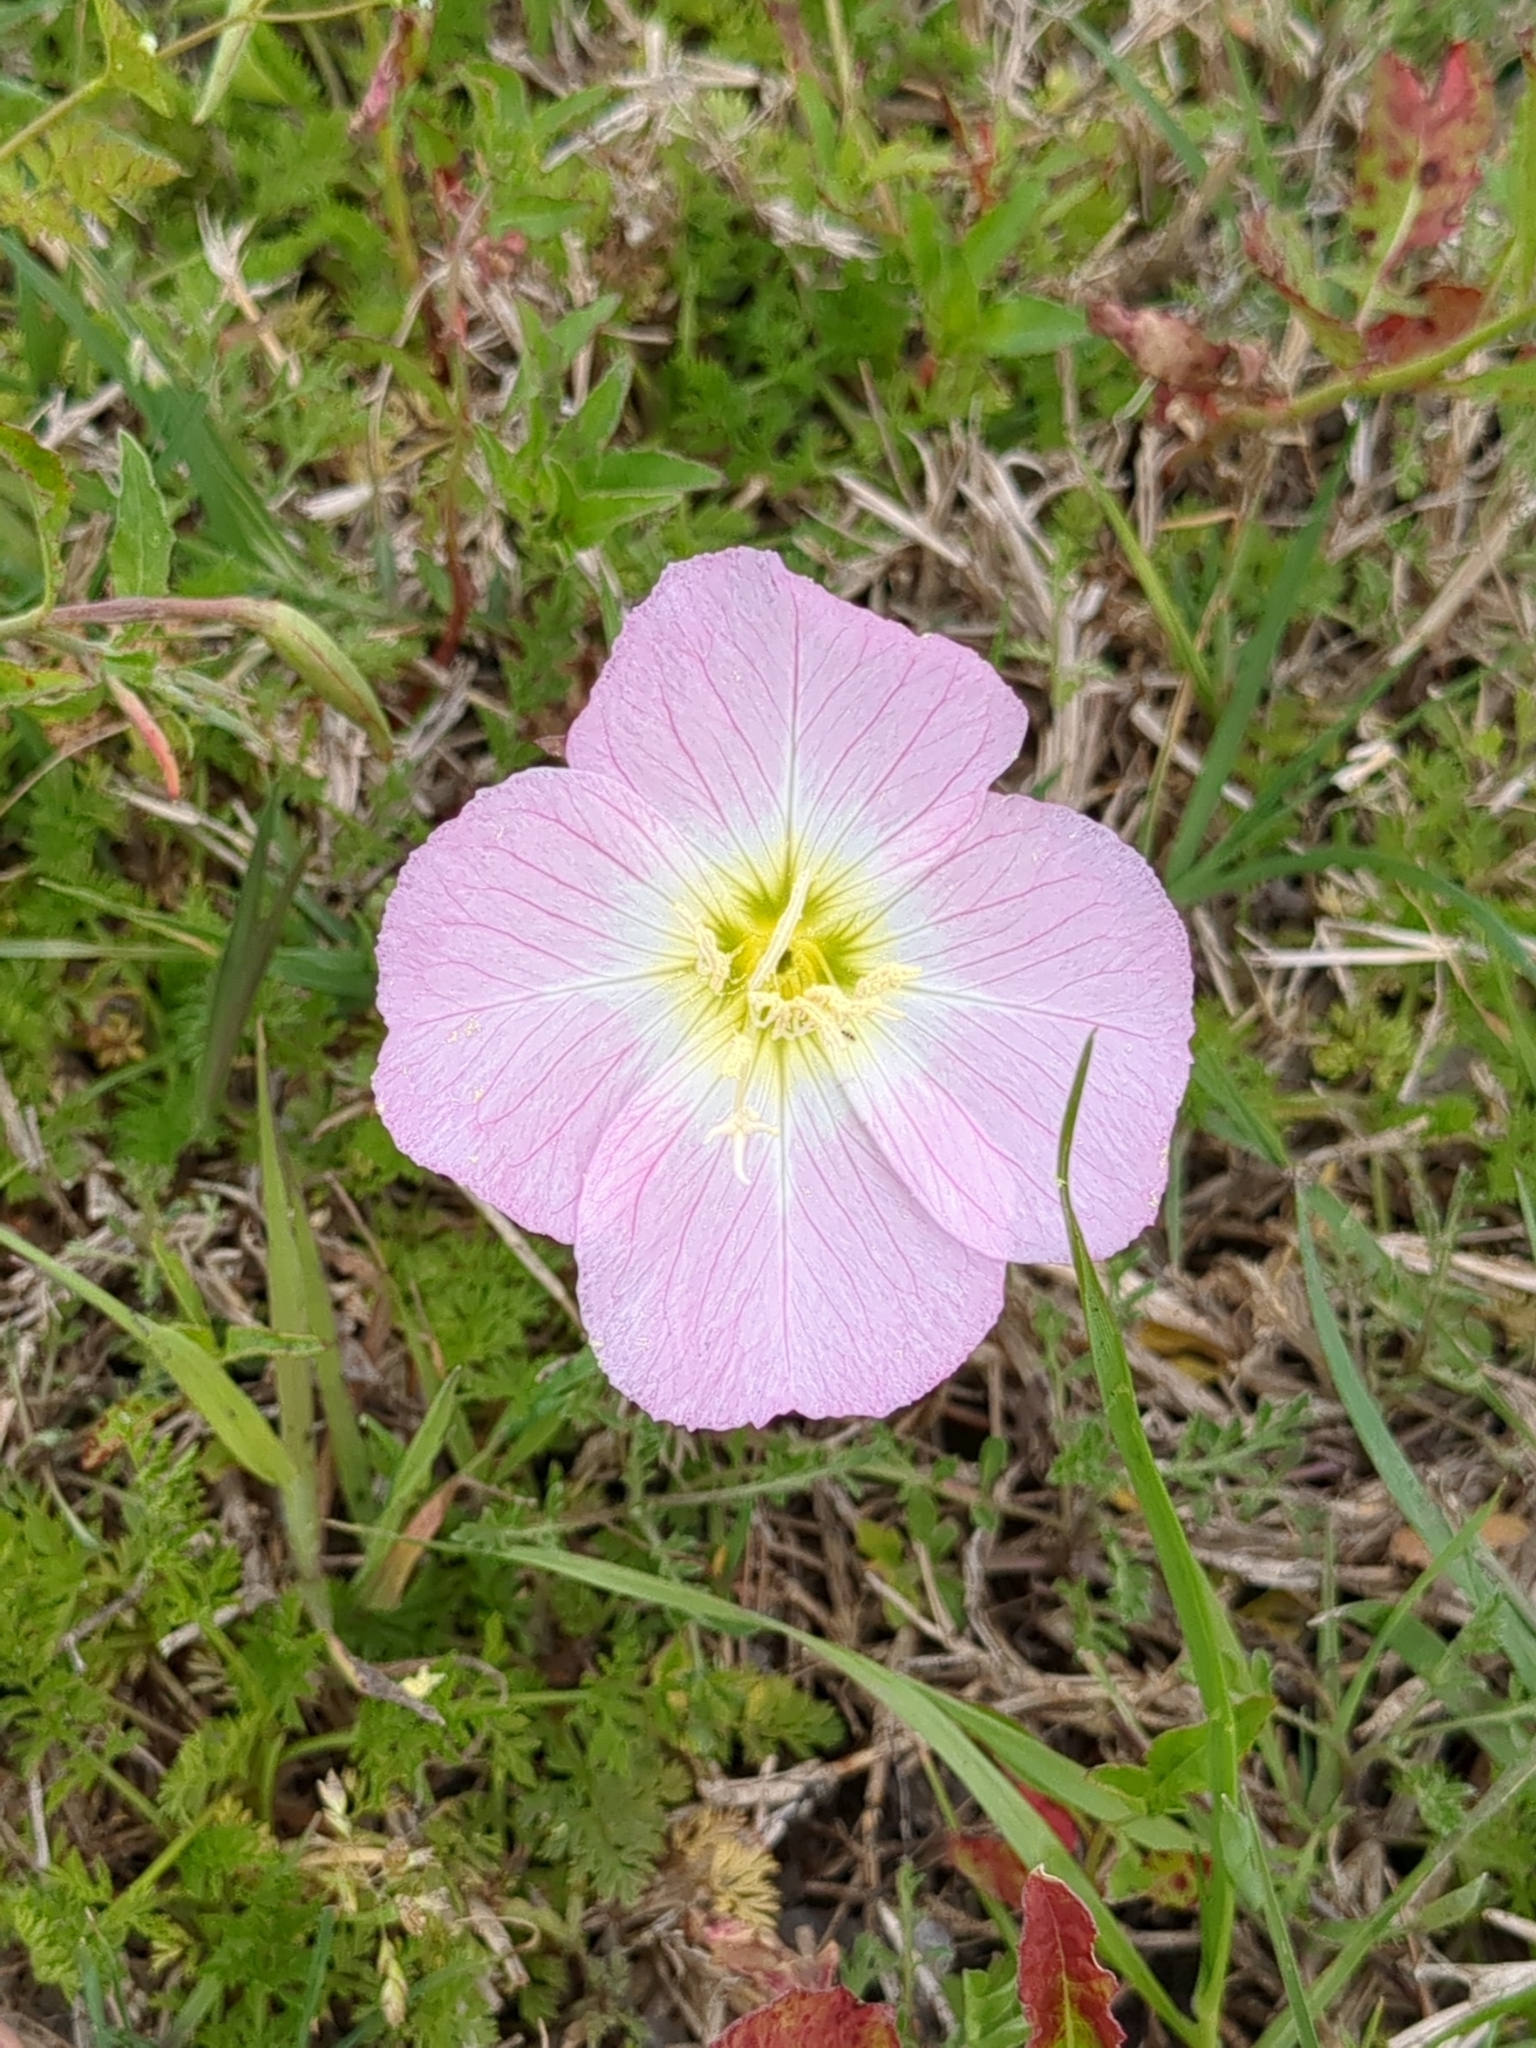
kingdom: Plantae
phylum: Tracheophyta
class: Magnoliopsida
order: Myrtales
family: Onagraceae
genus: Oenothera
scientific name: Oenothera speciosa
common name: White evening-primrose
